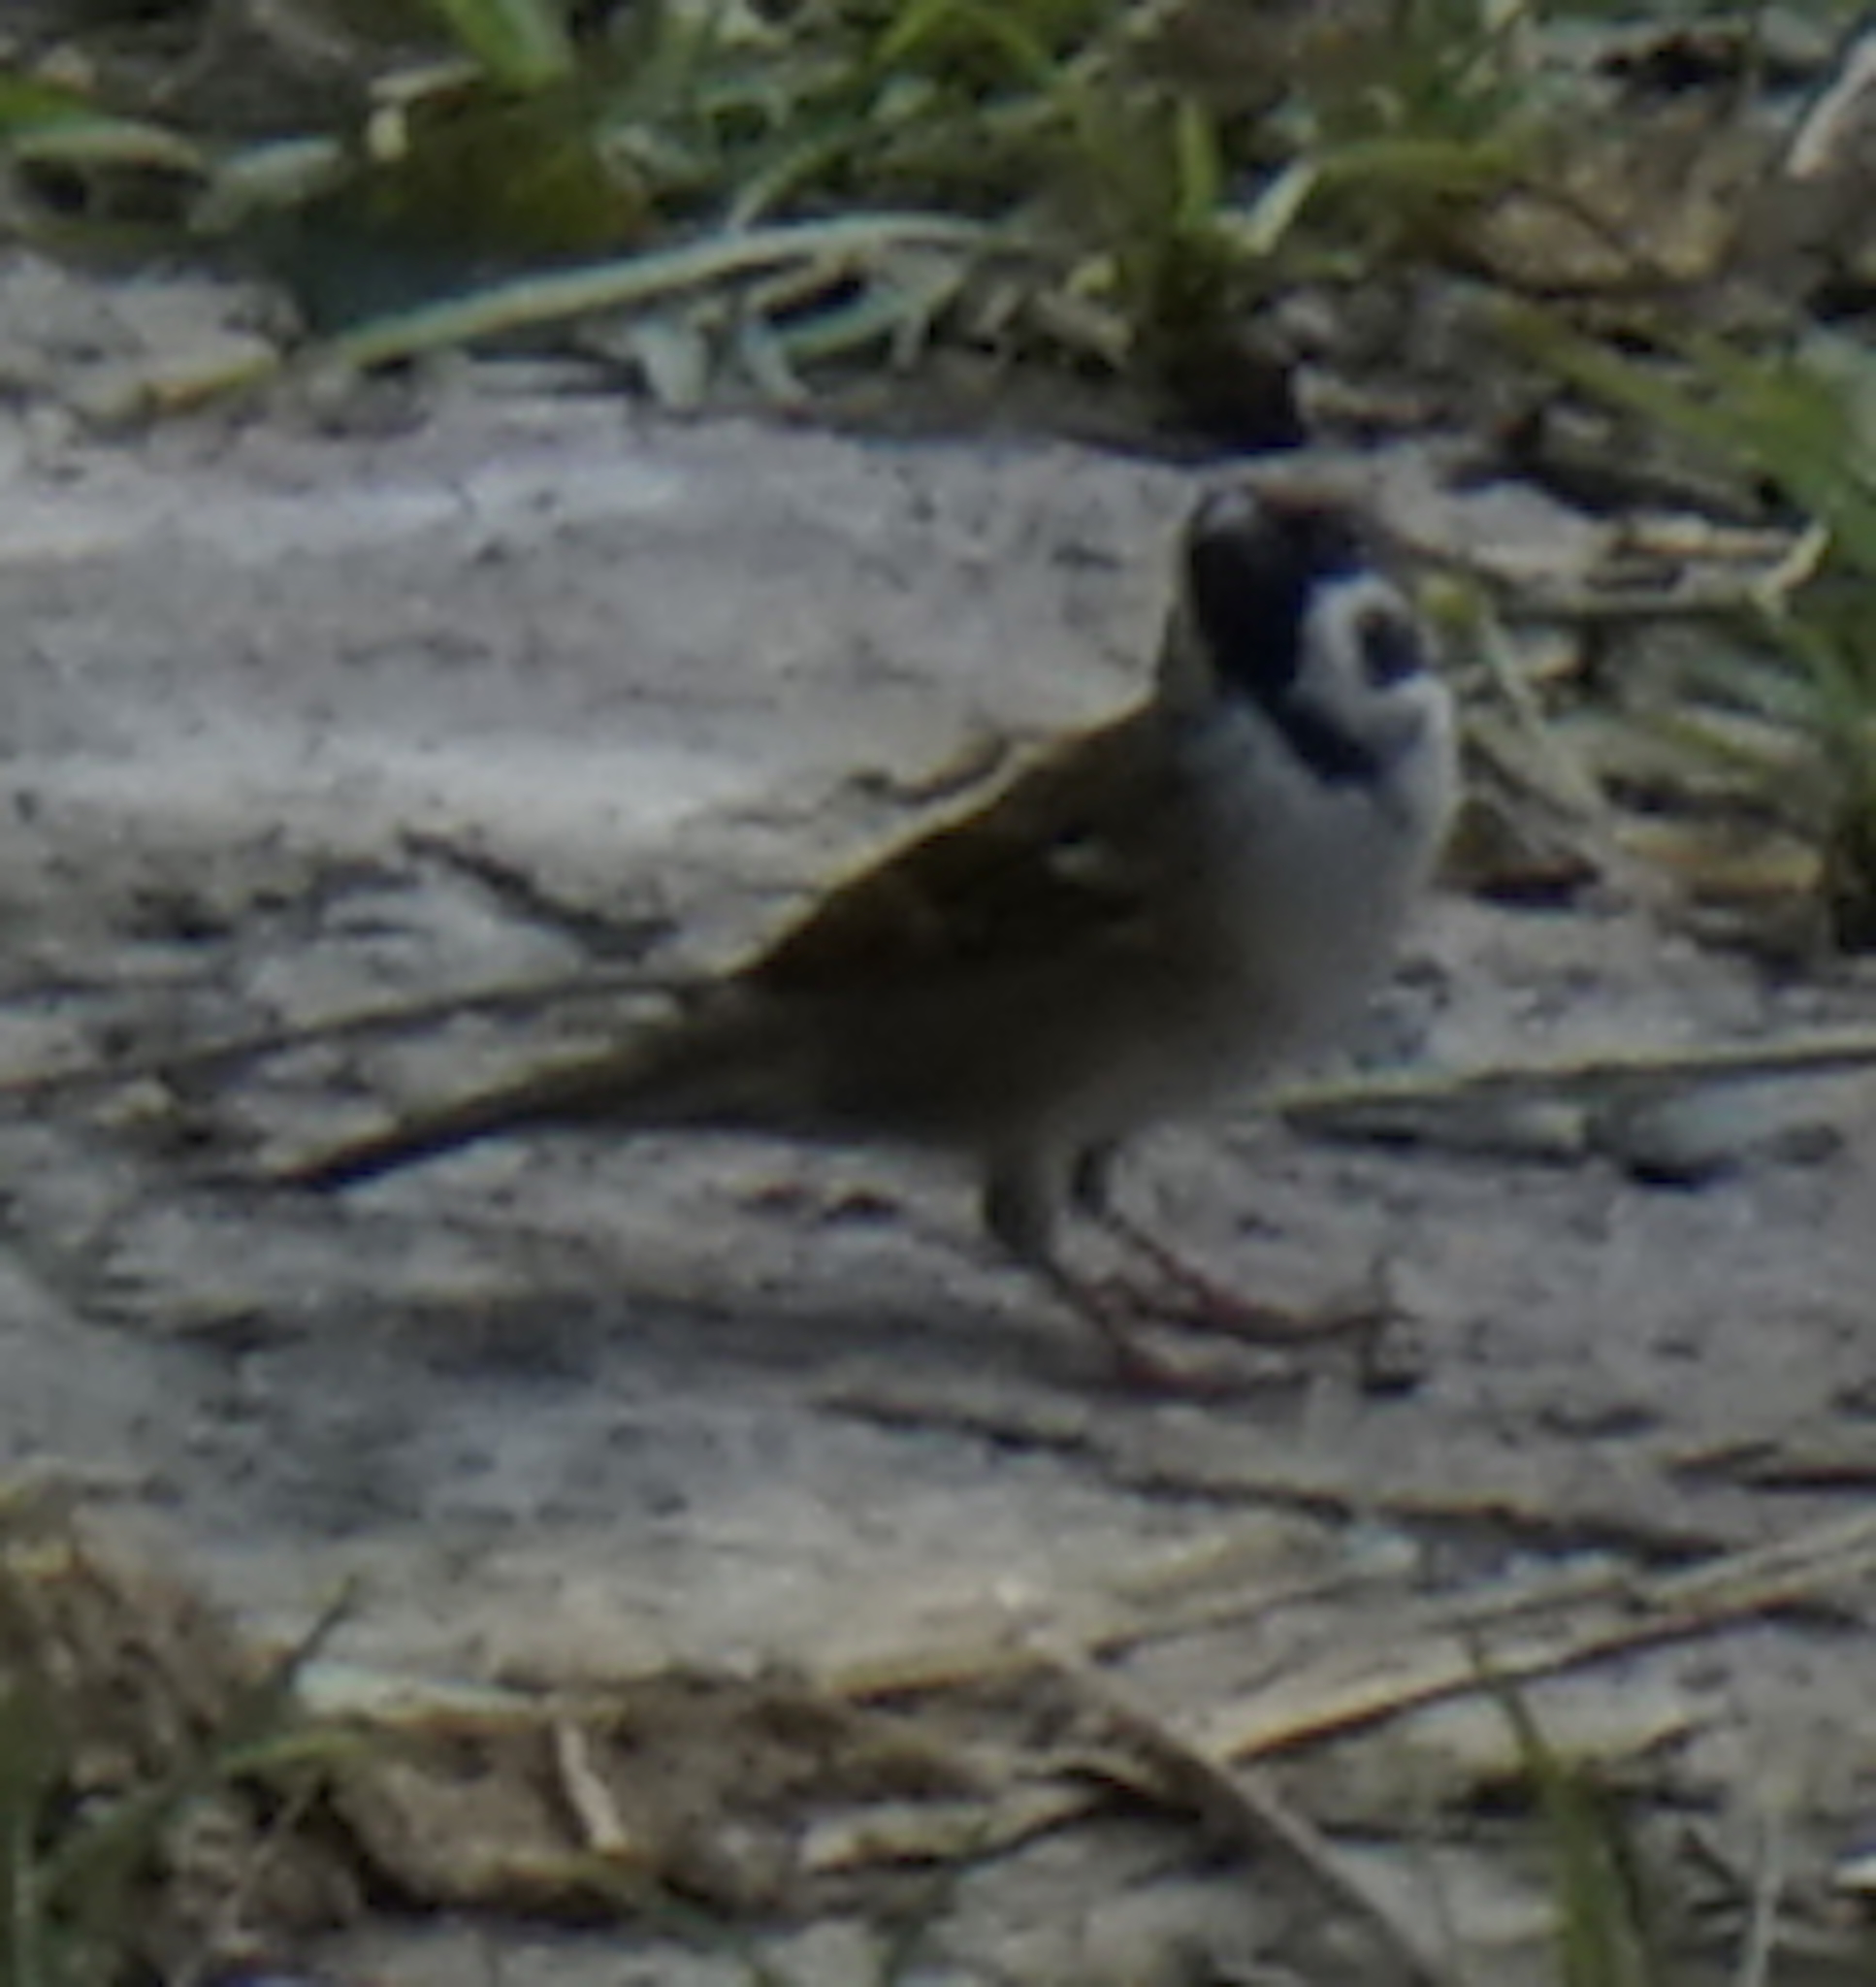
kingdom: Animalia
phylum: Chordata
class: Aves
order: Passeriformes
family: Passeridae
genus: Passer
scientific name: Passer montanus
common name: Eurasian tree sparrow
